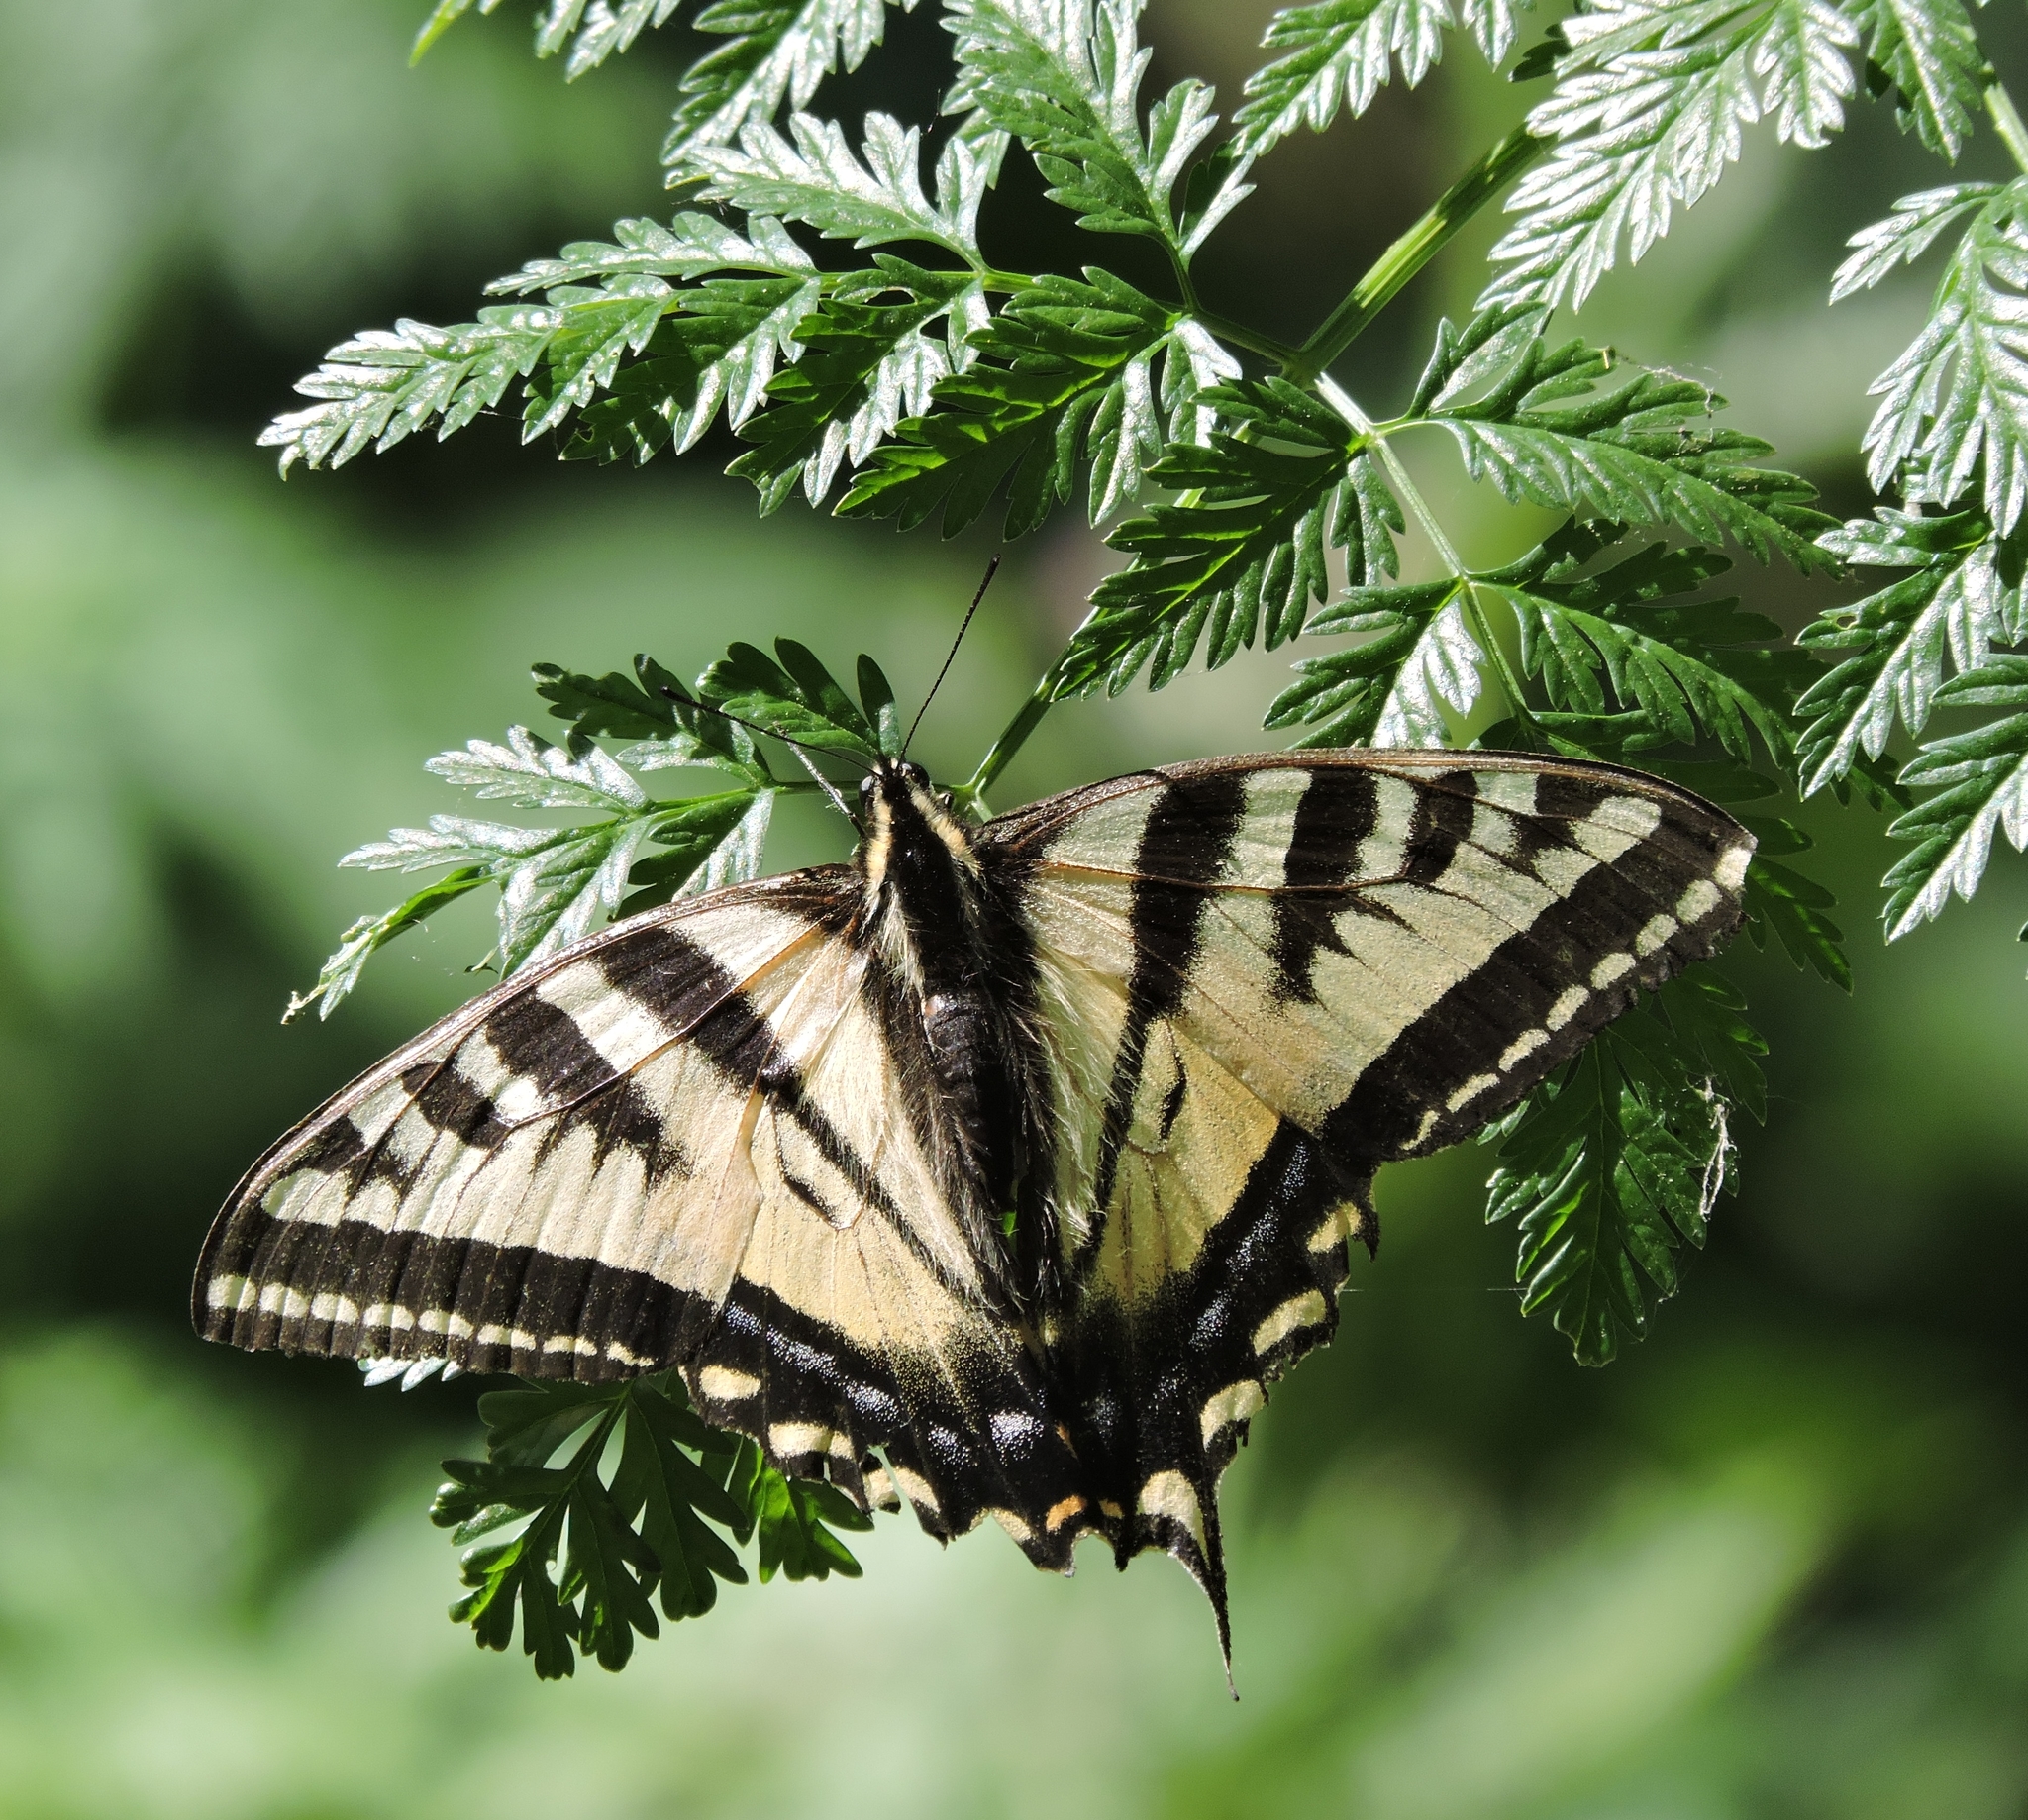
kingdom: Animalia
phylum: Arthropoda
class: Insecta
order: Lepidoptera
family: Papilionidae
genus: Papilio
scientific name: Papilio rutulus
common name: Western tiger swallowtail
